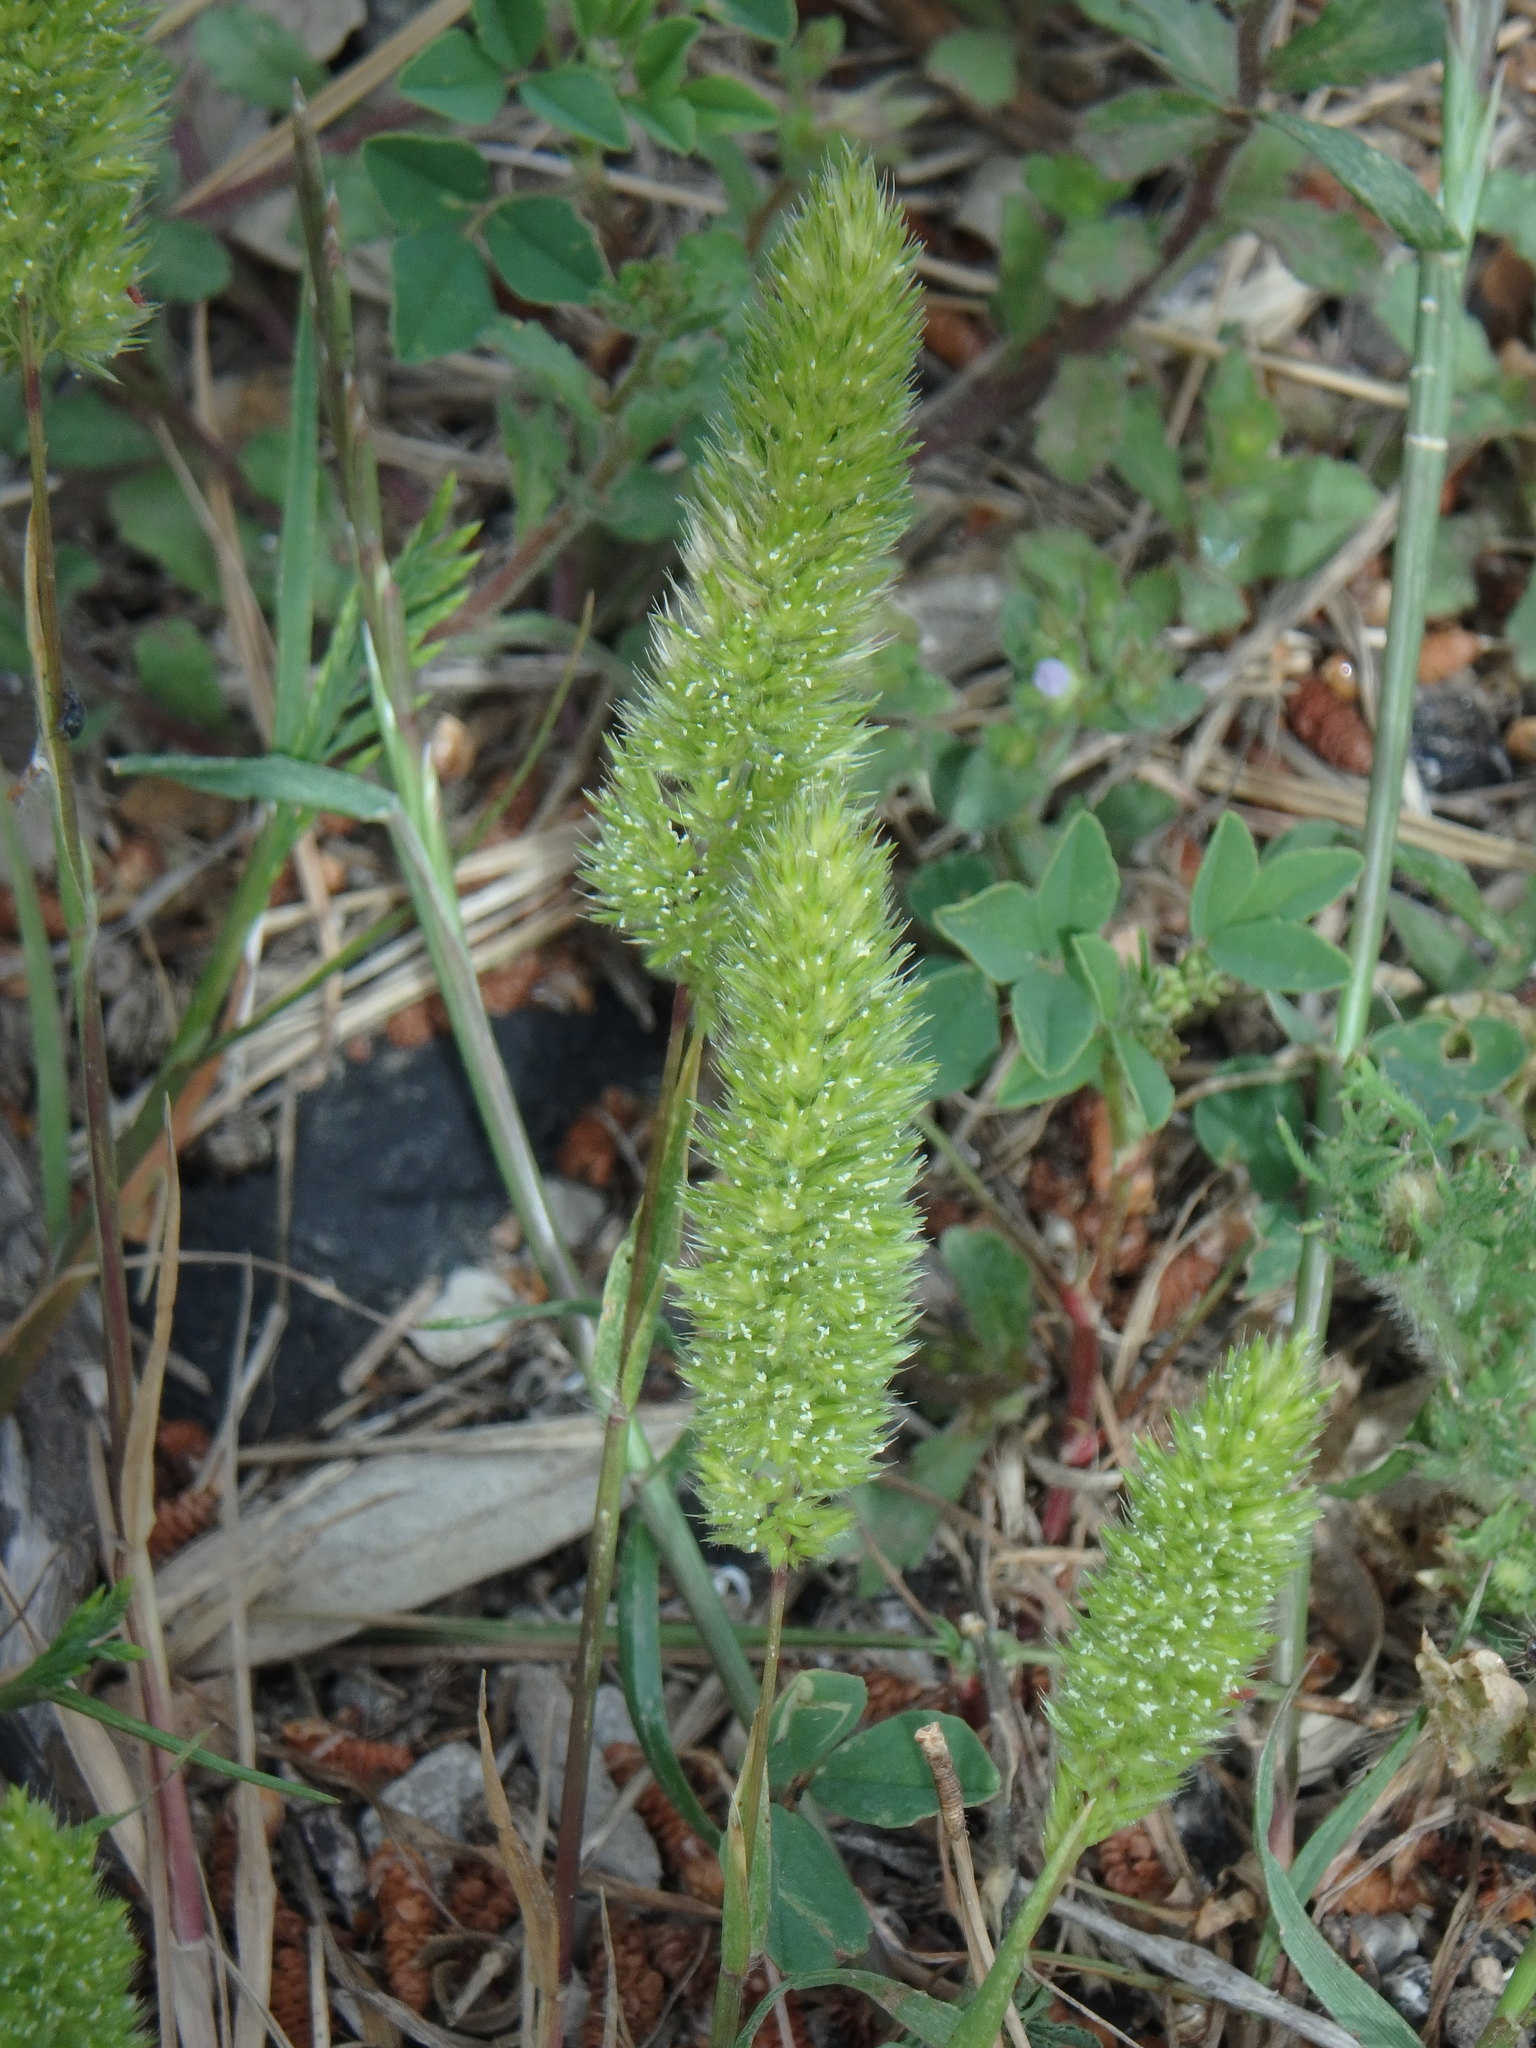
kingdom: Plantae
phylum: Tracheophyta
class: Liliopsida
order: Poales
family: Poaceae
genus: Rostraria
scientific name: Rostraria cristata
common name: Mediterranean hair-grass
